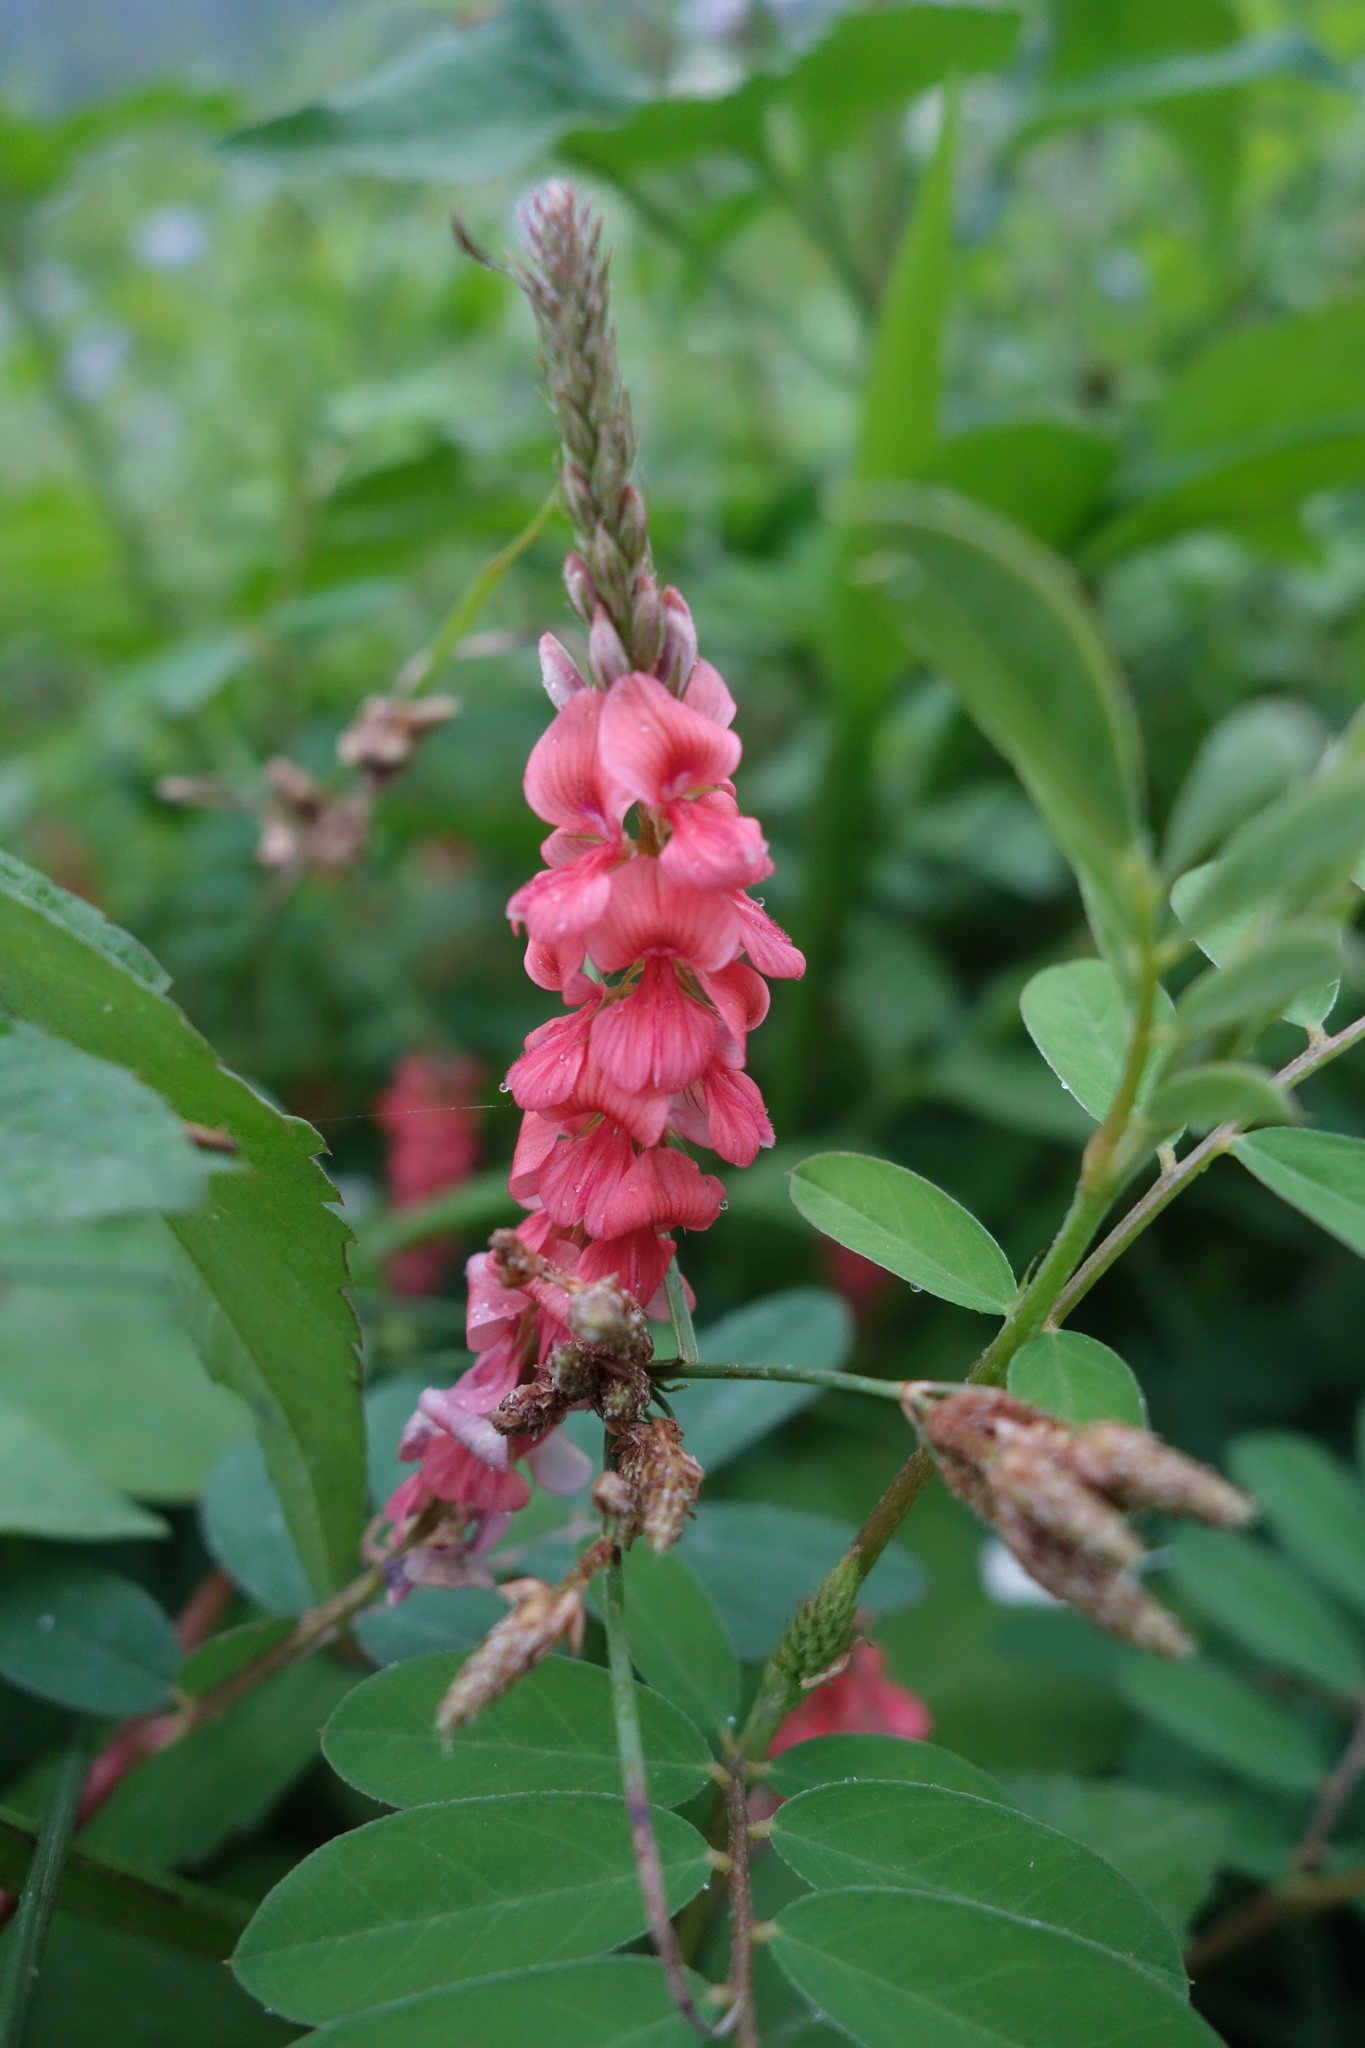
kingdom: Plantae
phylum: Tracheophyta
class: Magnoliopsida
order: Fabales
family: Fabaceae
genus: Indigofera
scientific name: Indigofera spicata
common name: Creeping indigo
